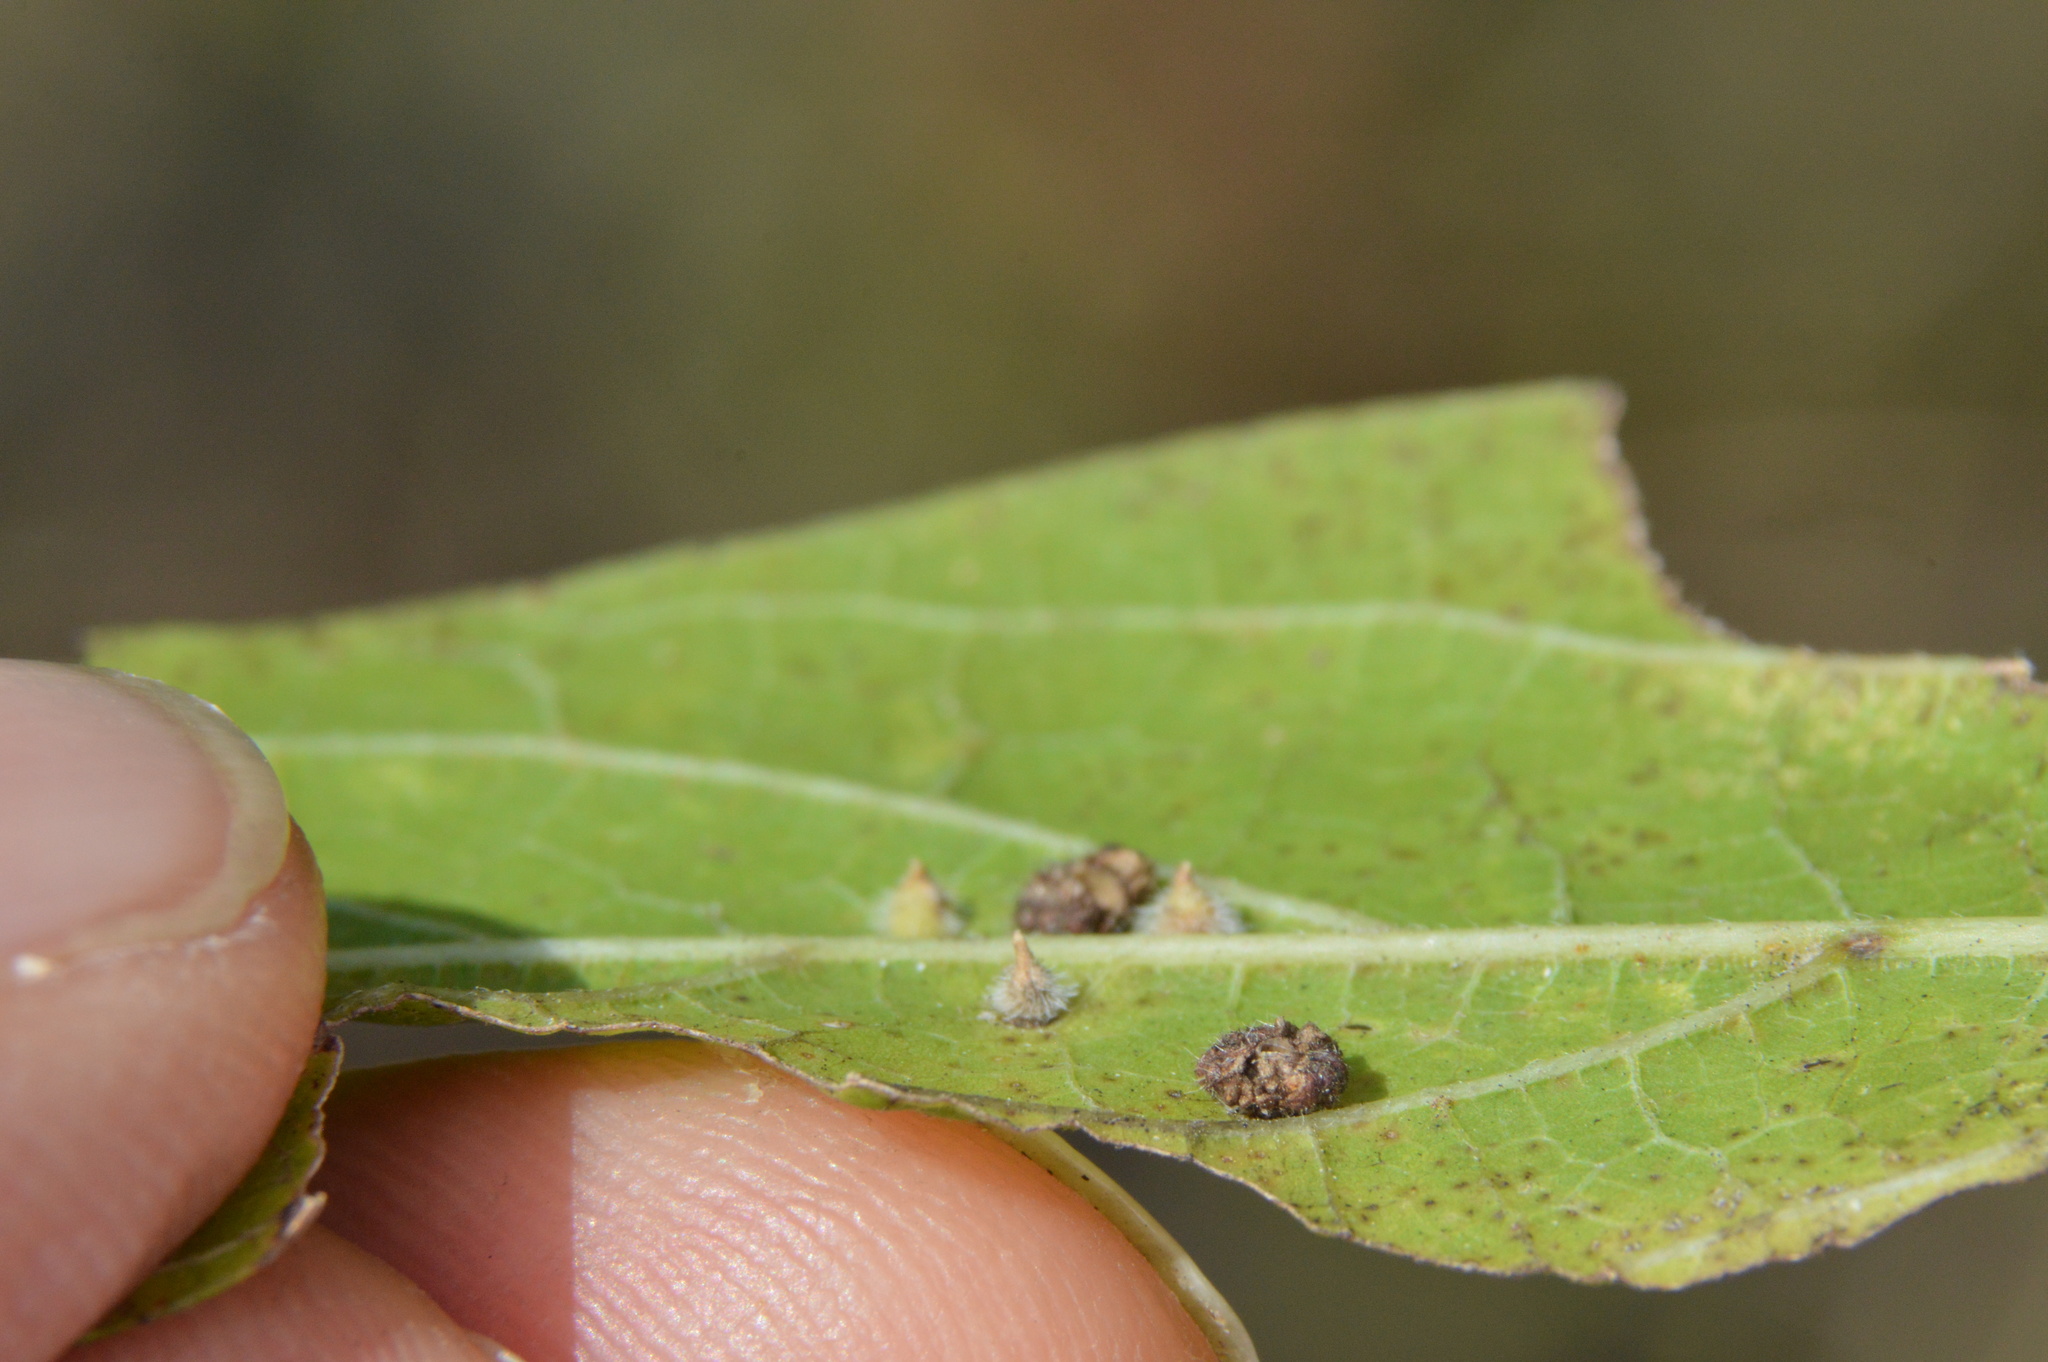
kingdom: Animalia
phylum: Arthropoda
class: Insecta
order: Diptera
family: Cecidomyiidae
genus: Celticecis
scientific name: Celticecis capsularis
